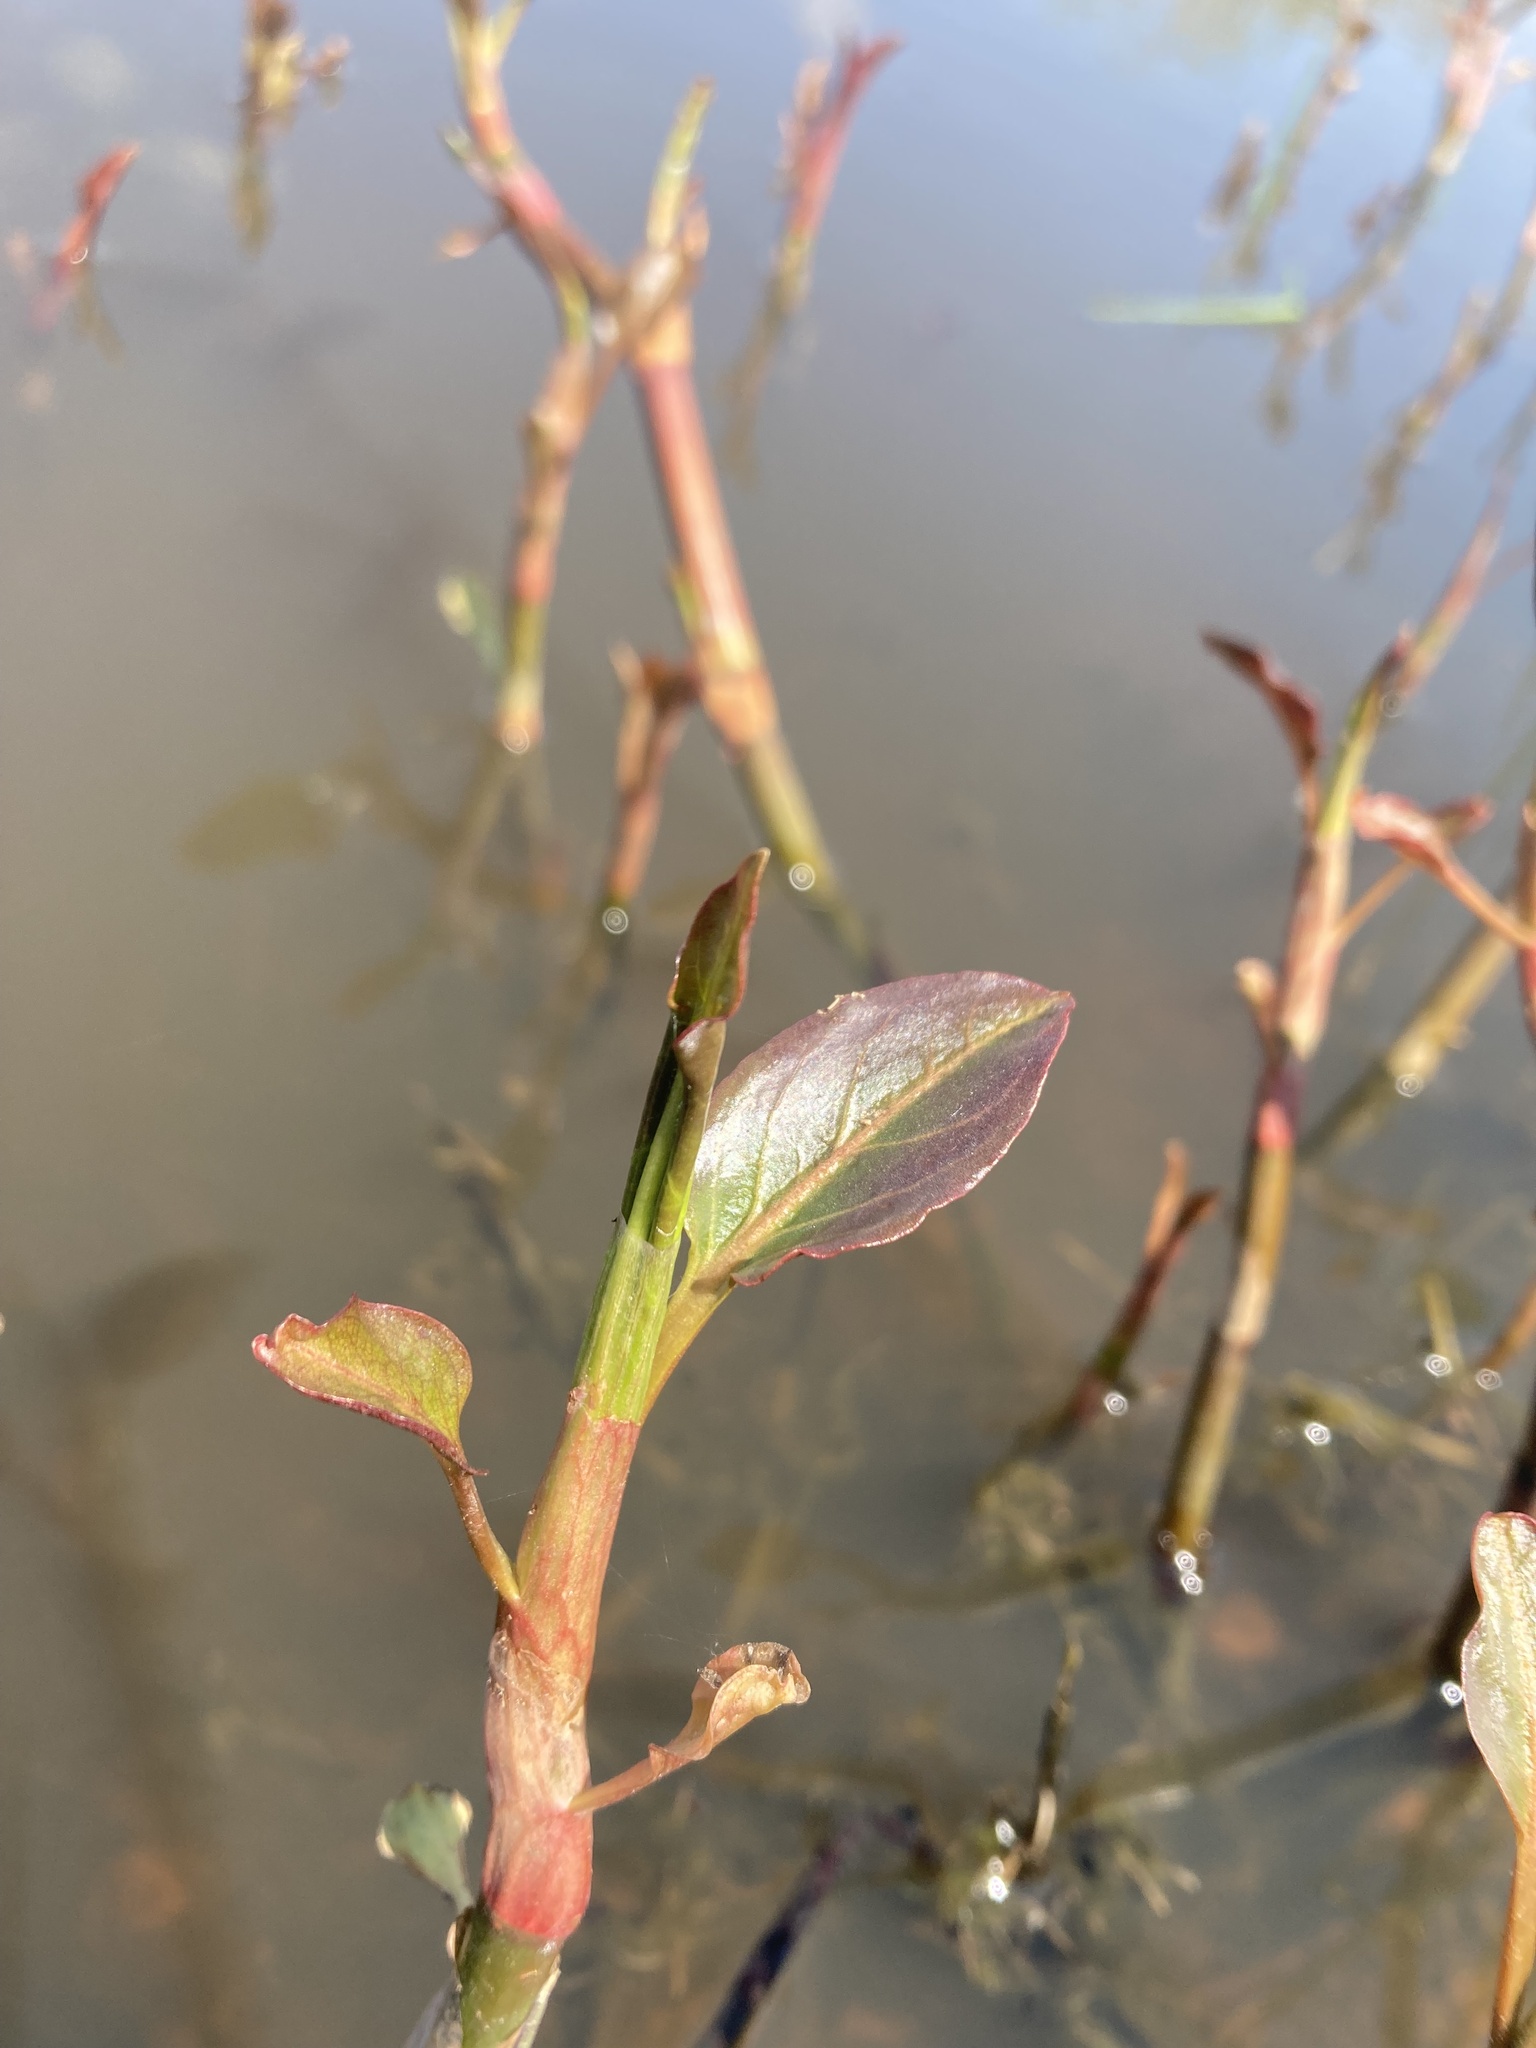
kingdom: Plantae
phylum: Tracheophyta
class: Magnoliopsida
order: Caryophyllales
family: Polygonaceae
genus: Persicaria
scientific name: Persicaria amphibia
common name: Amphibious bistort
